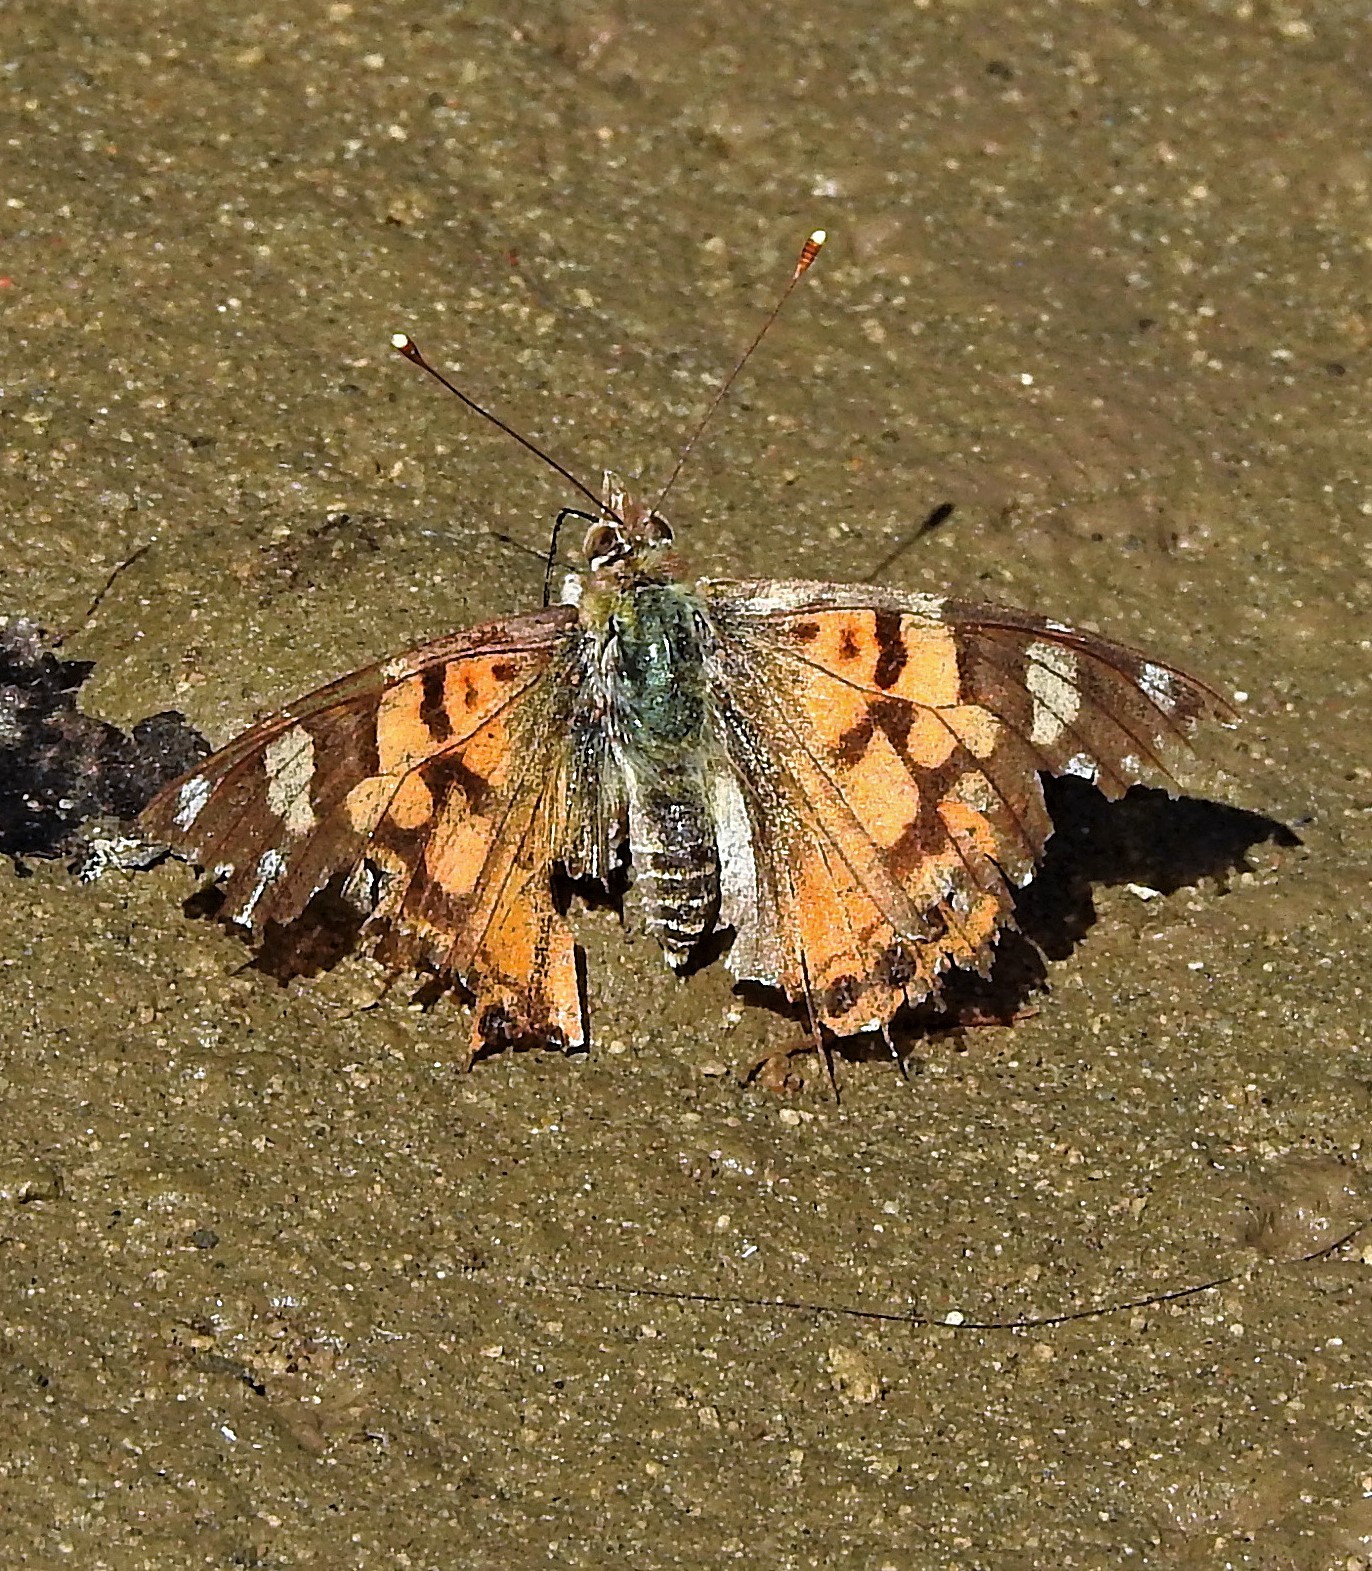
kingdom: Animalia
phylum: Arthropoda
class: Insecta
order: Lepidoptera
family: Nymphalidae
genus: Vanessa
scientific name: Vanessa carye
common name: Subtropical lady
